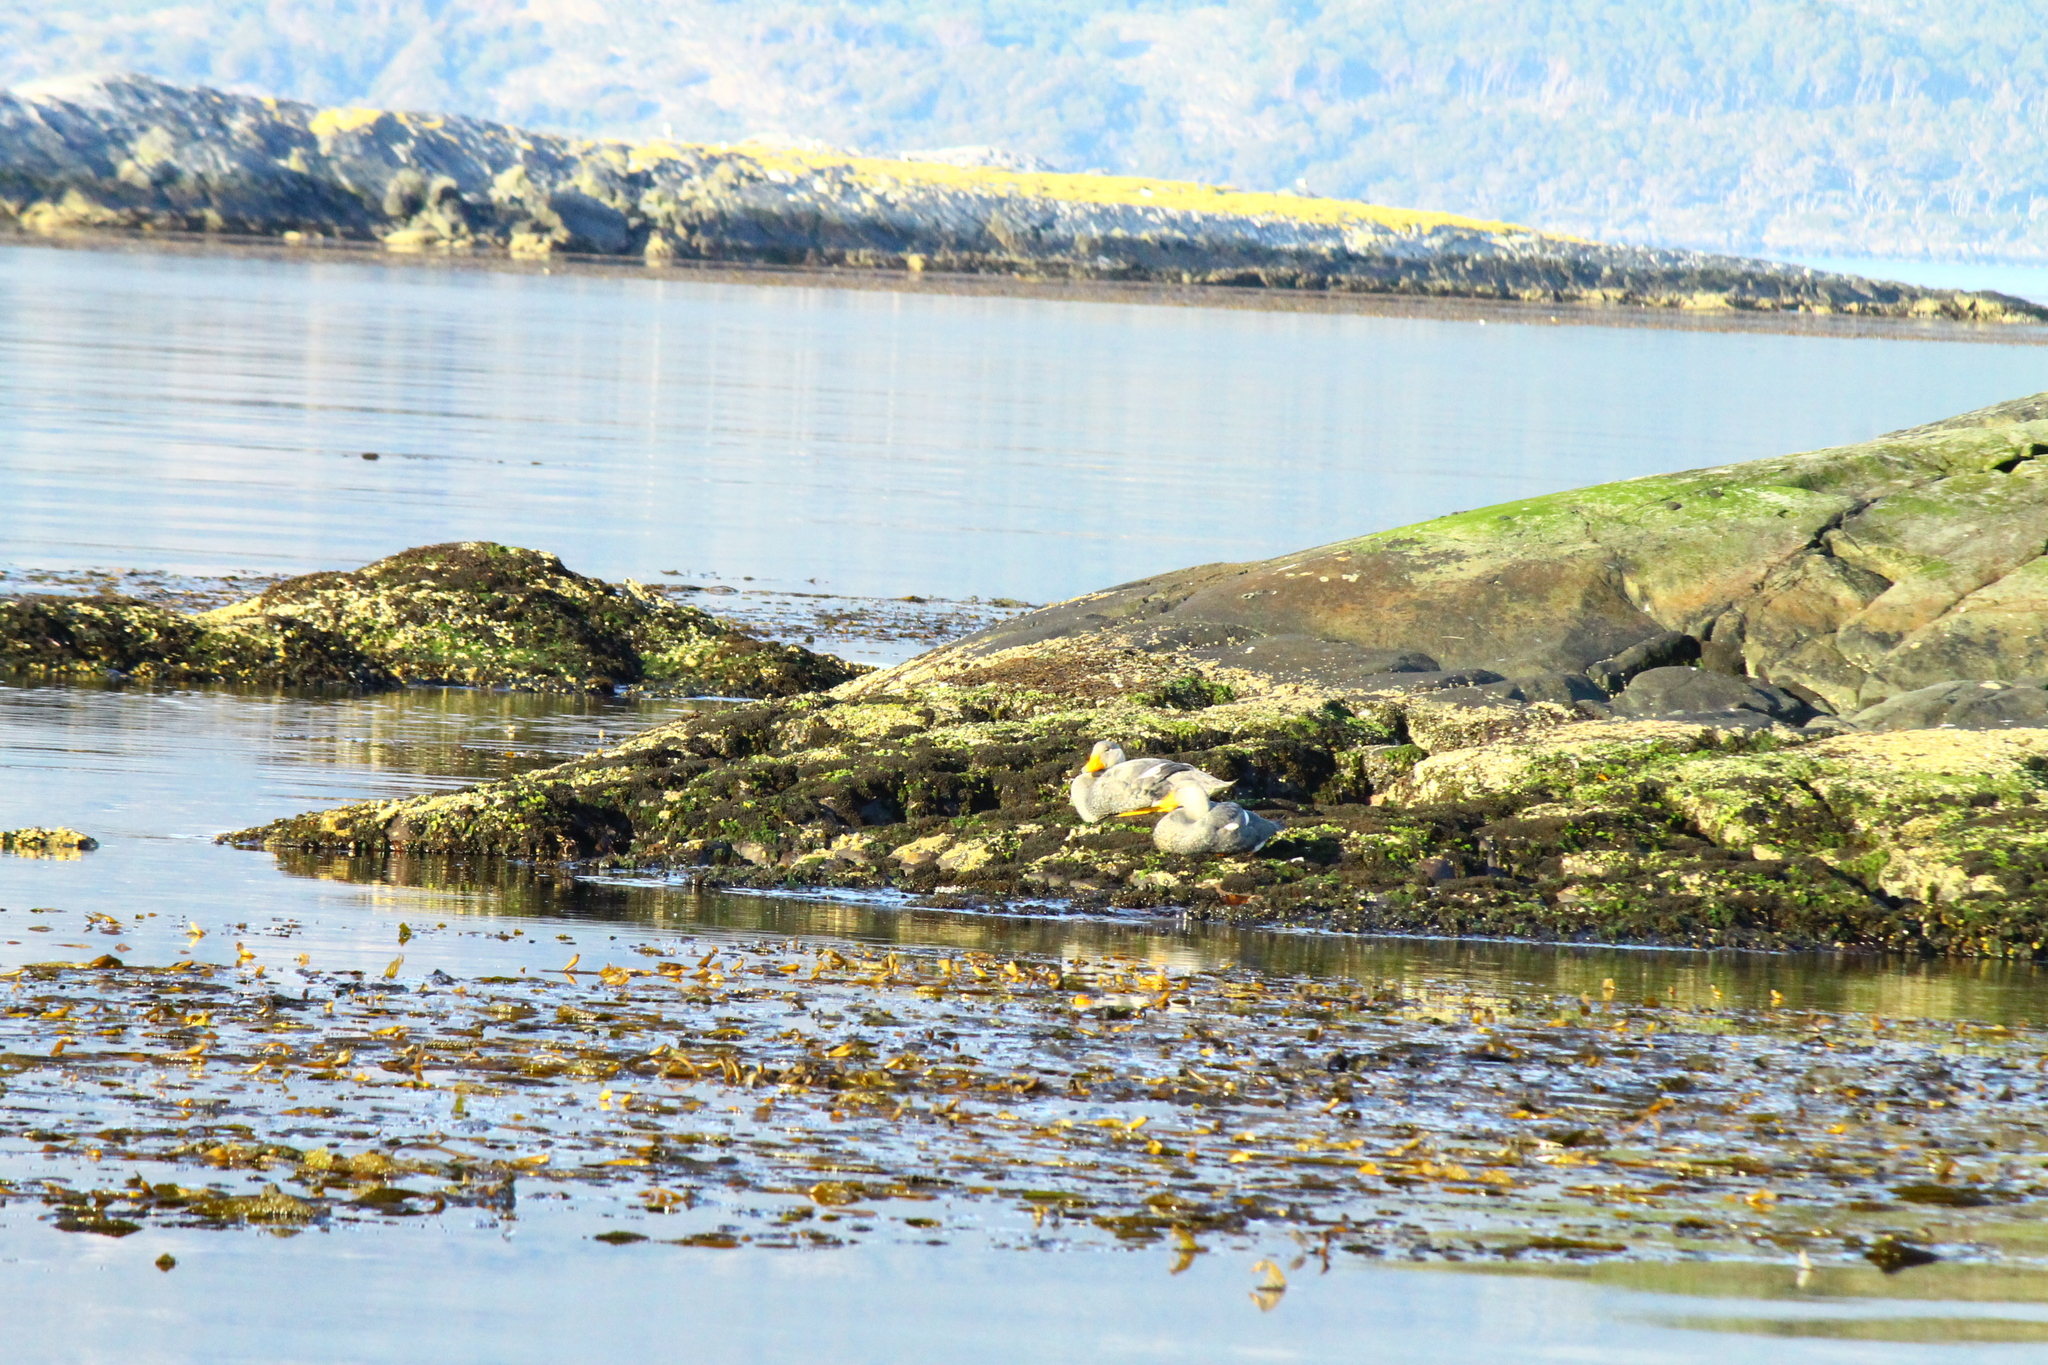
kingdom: Animalia
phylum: Chordata
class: Aves
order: Anseriformes
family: Anatidae
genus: Tachyeres
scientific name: Tachyeres pteneres
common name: Fuegian steamer duck
